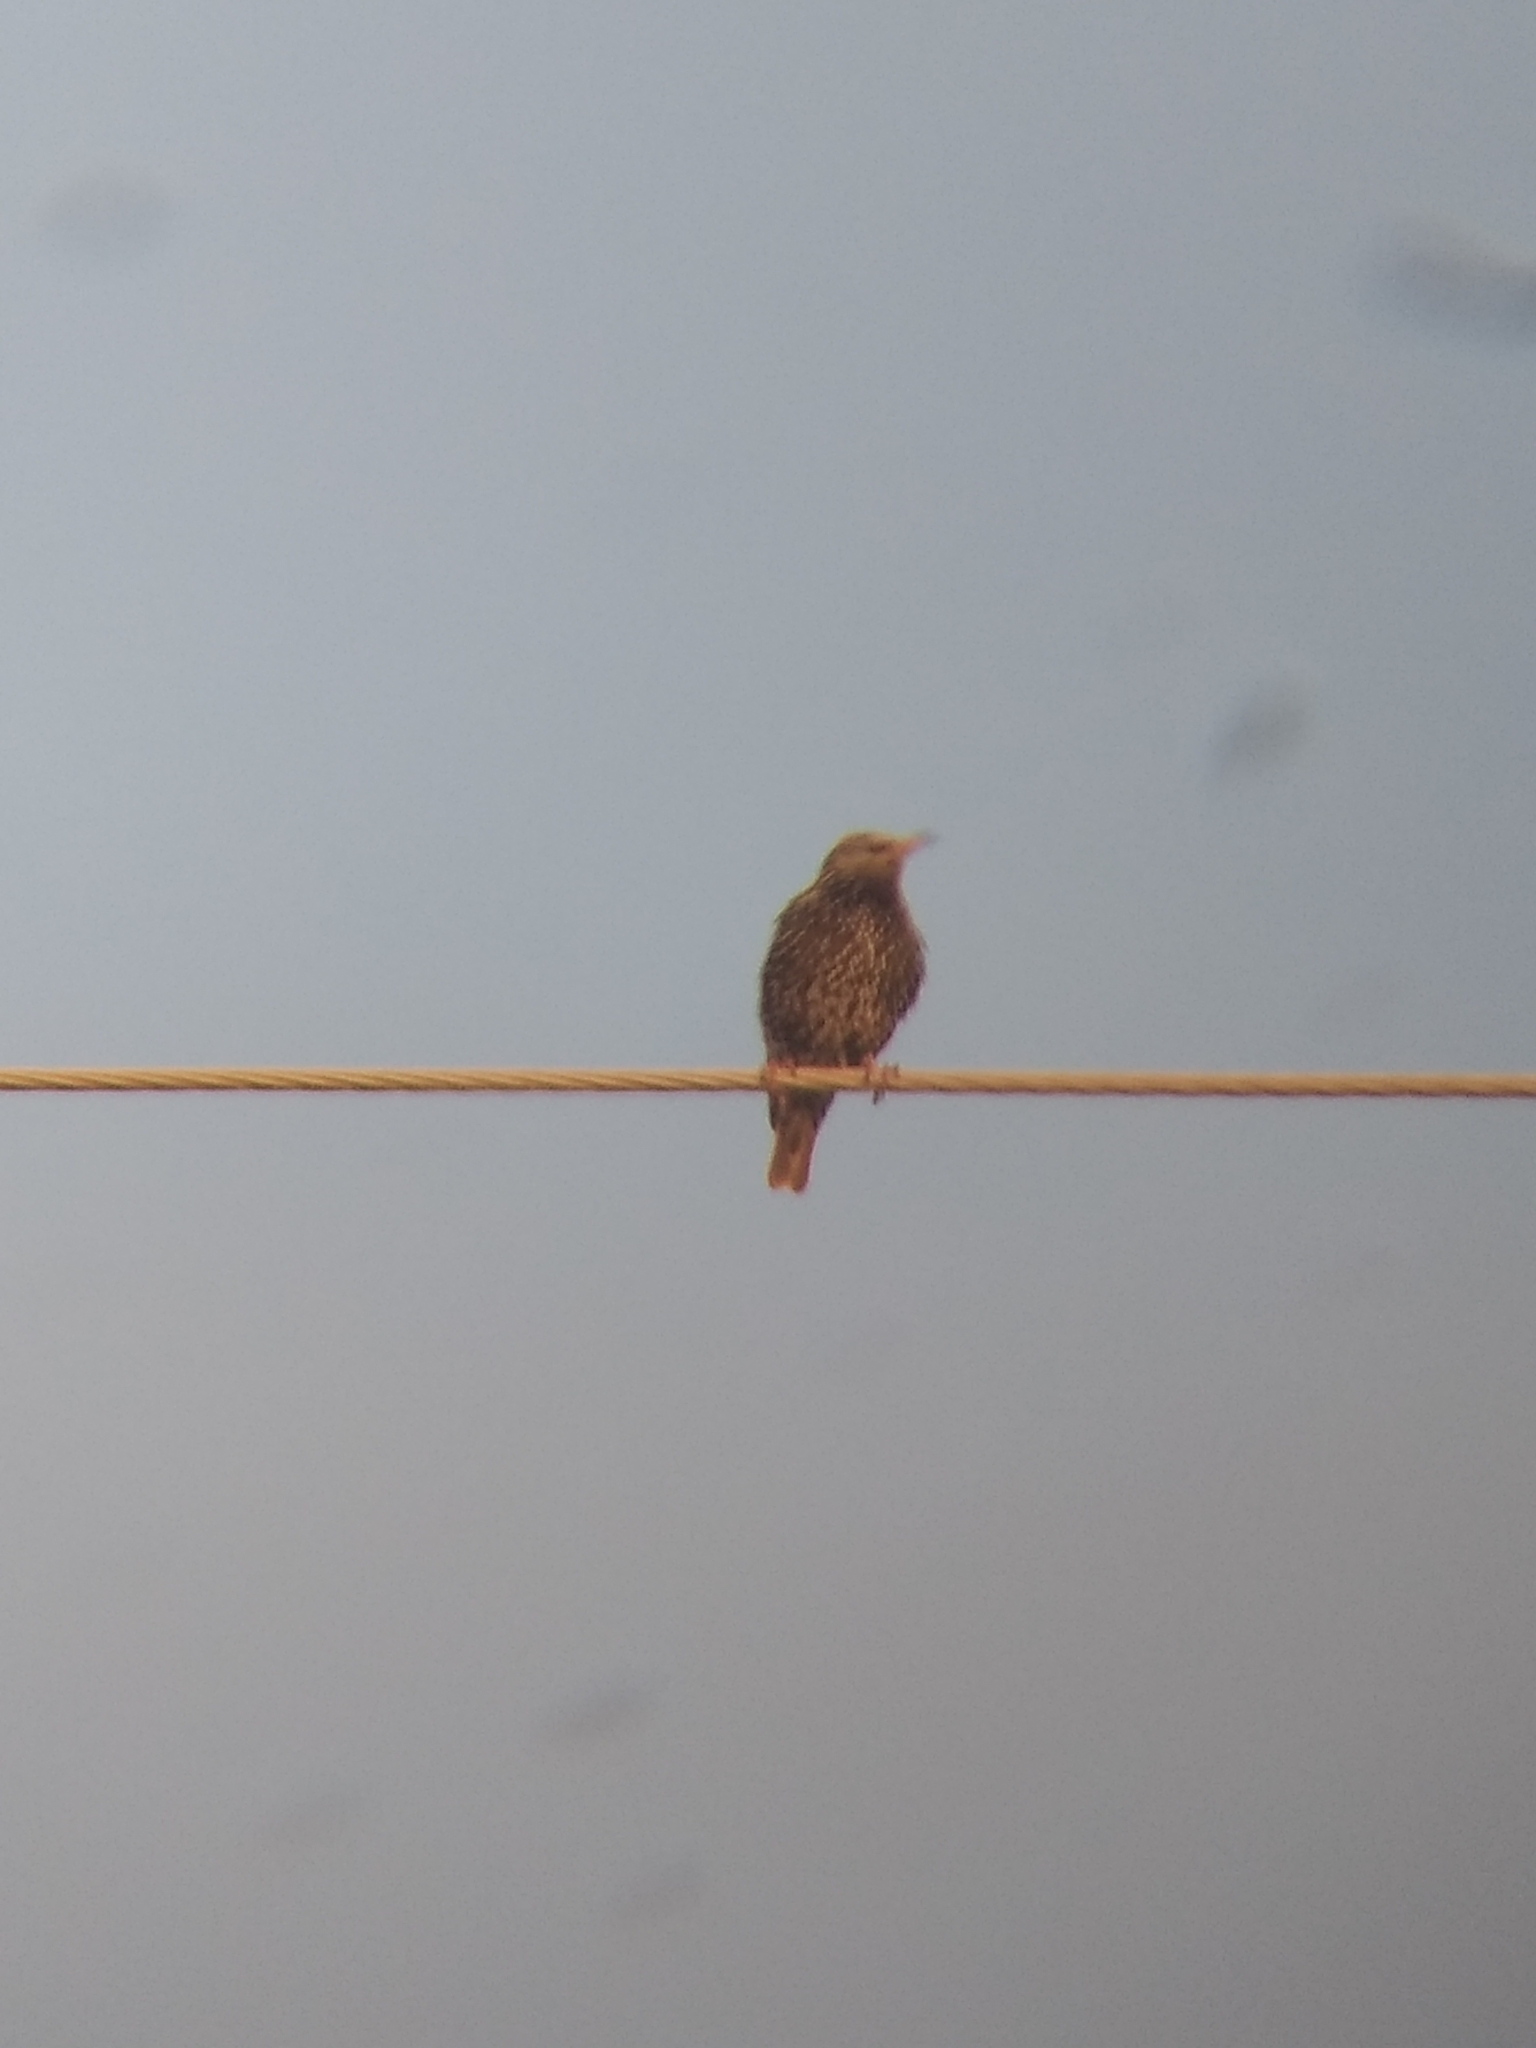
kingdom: Animalia
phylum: Chordata
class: Aves
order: Passeriformes
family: Sturnidae
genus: Sturnus
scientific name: Sturnus vulgaris
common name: Common starling
